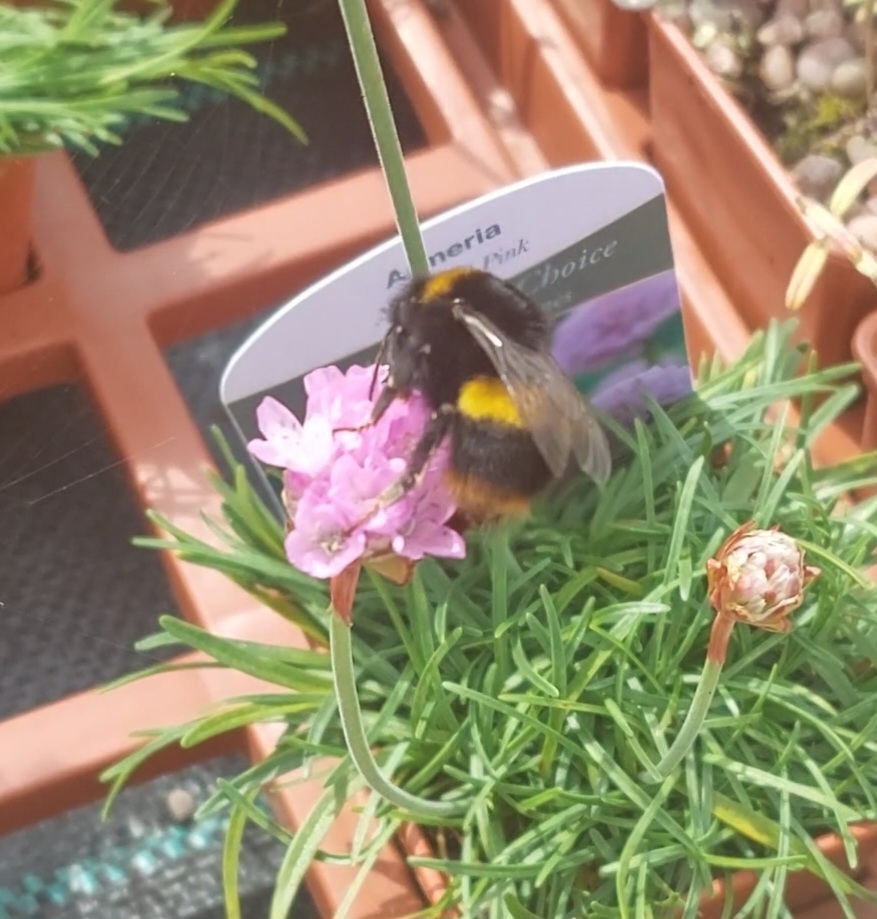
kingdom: Animalia
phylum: Arthropoda
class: Insecta
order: Hymenoptera
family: Apidae
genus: Bombus
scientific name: Bombus terrestris
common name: Buff-tailed bumblebee
